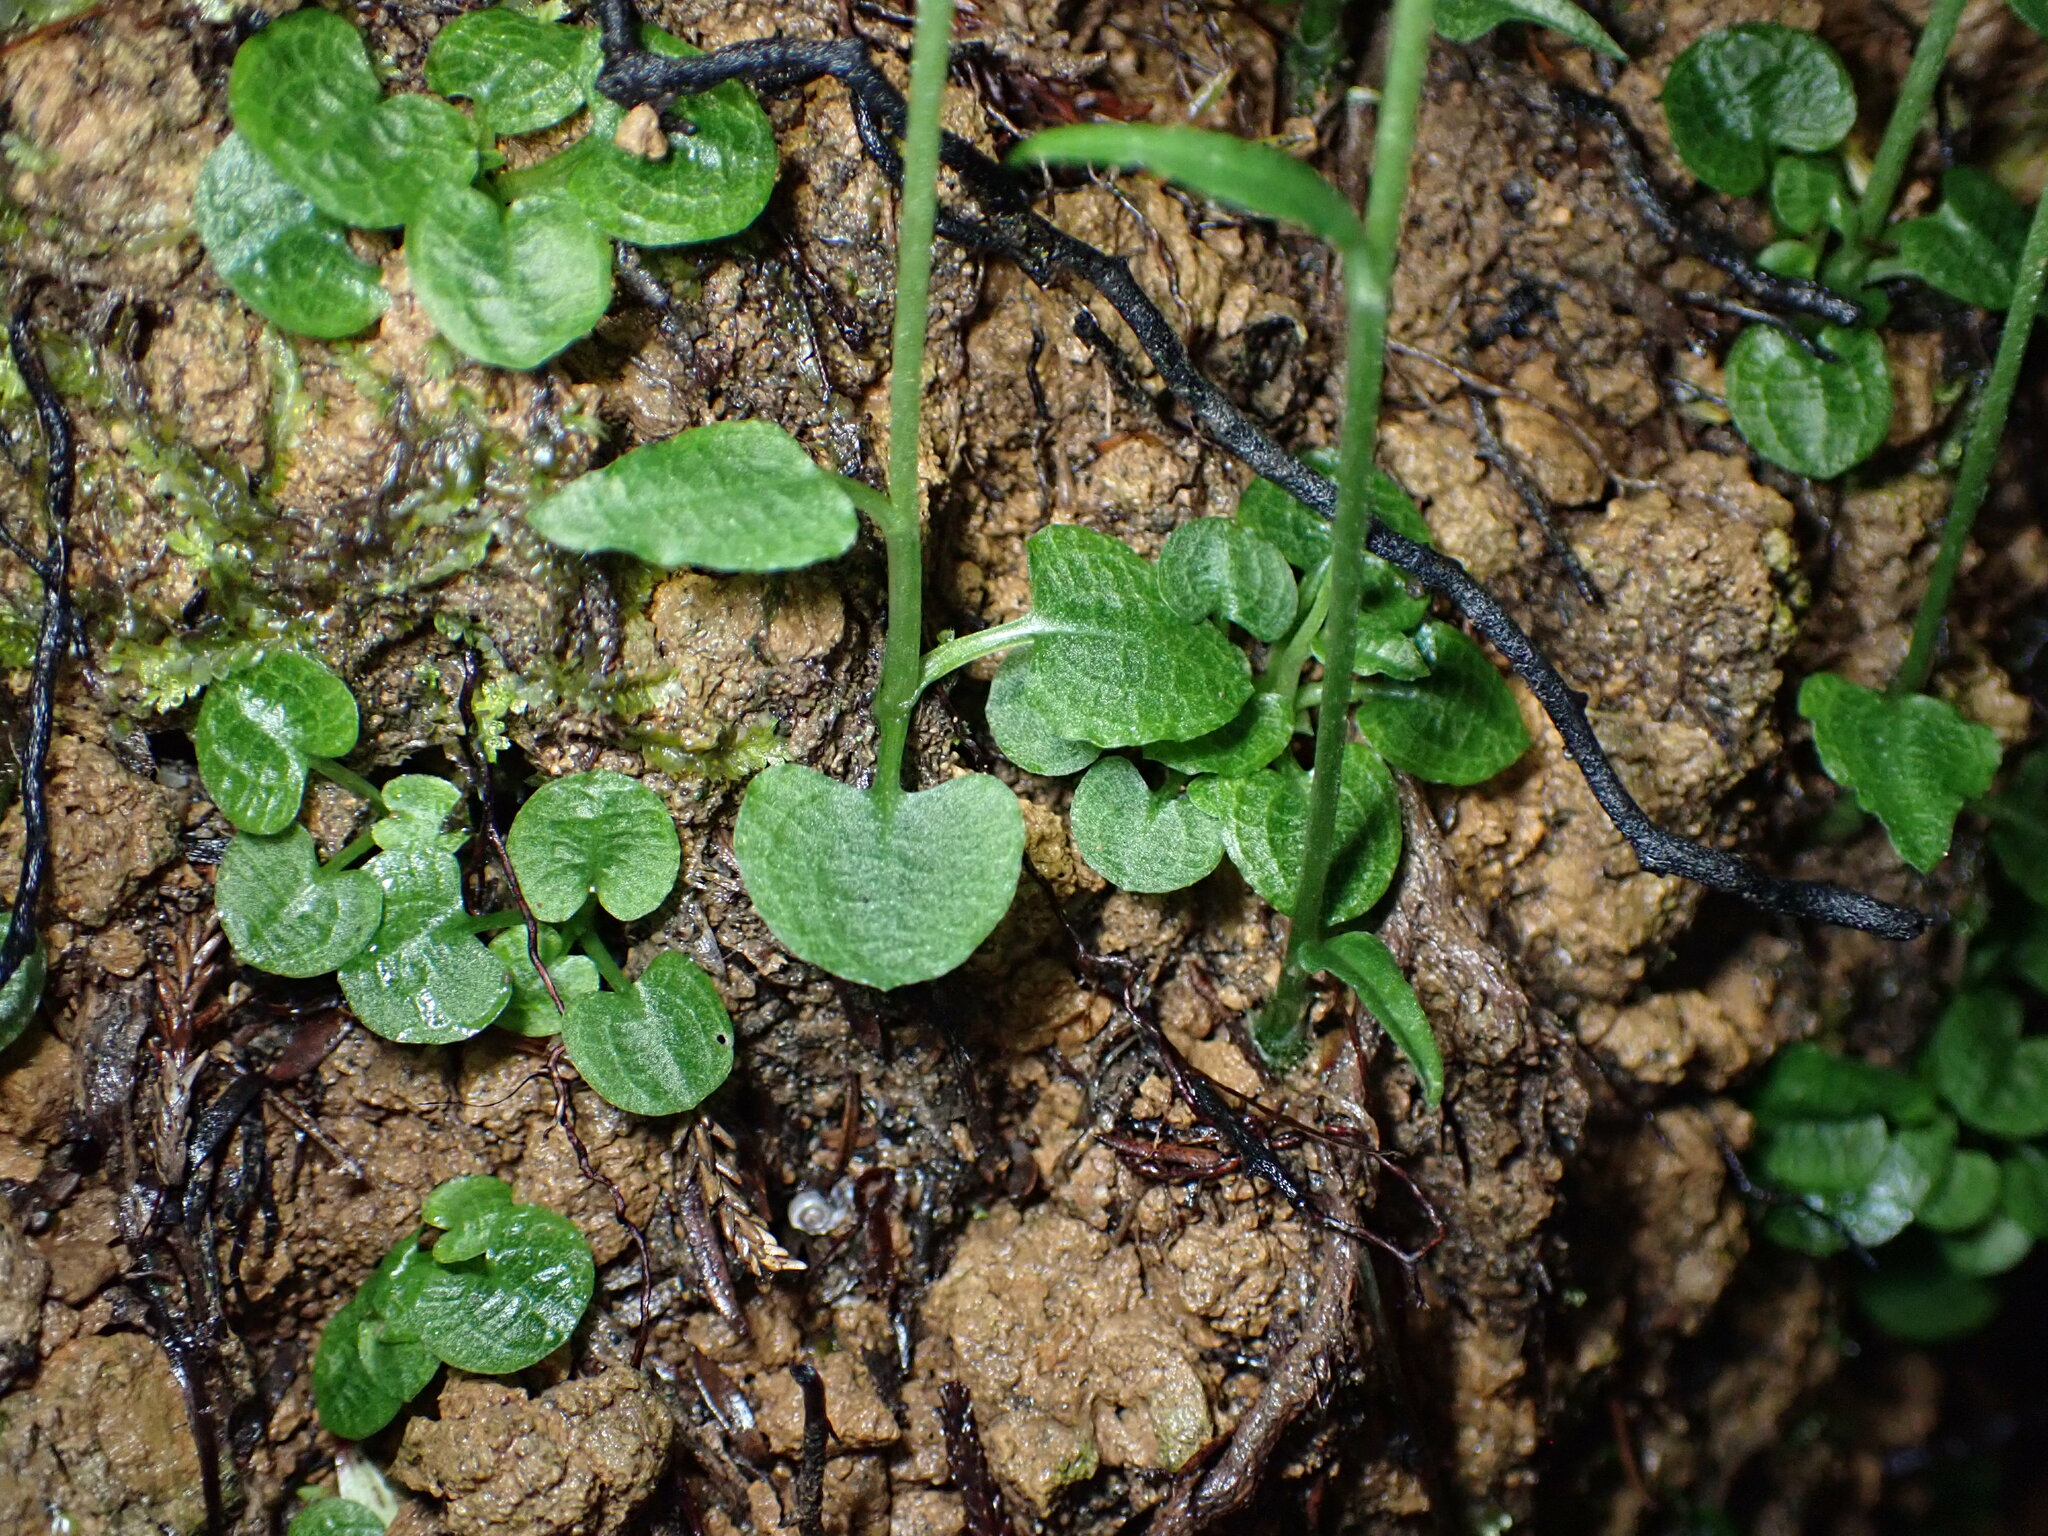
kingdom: Plantae
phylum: Tracheophyta
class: Liliopsida
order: Asparagales
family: Orchidaceae
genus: Pterostylis
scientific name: Pterostylis trullifolia
